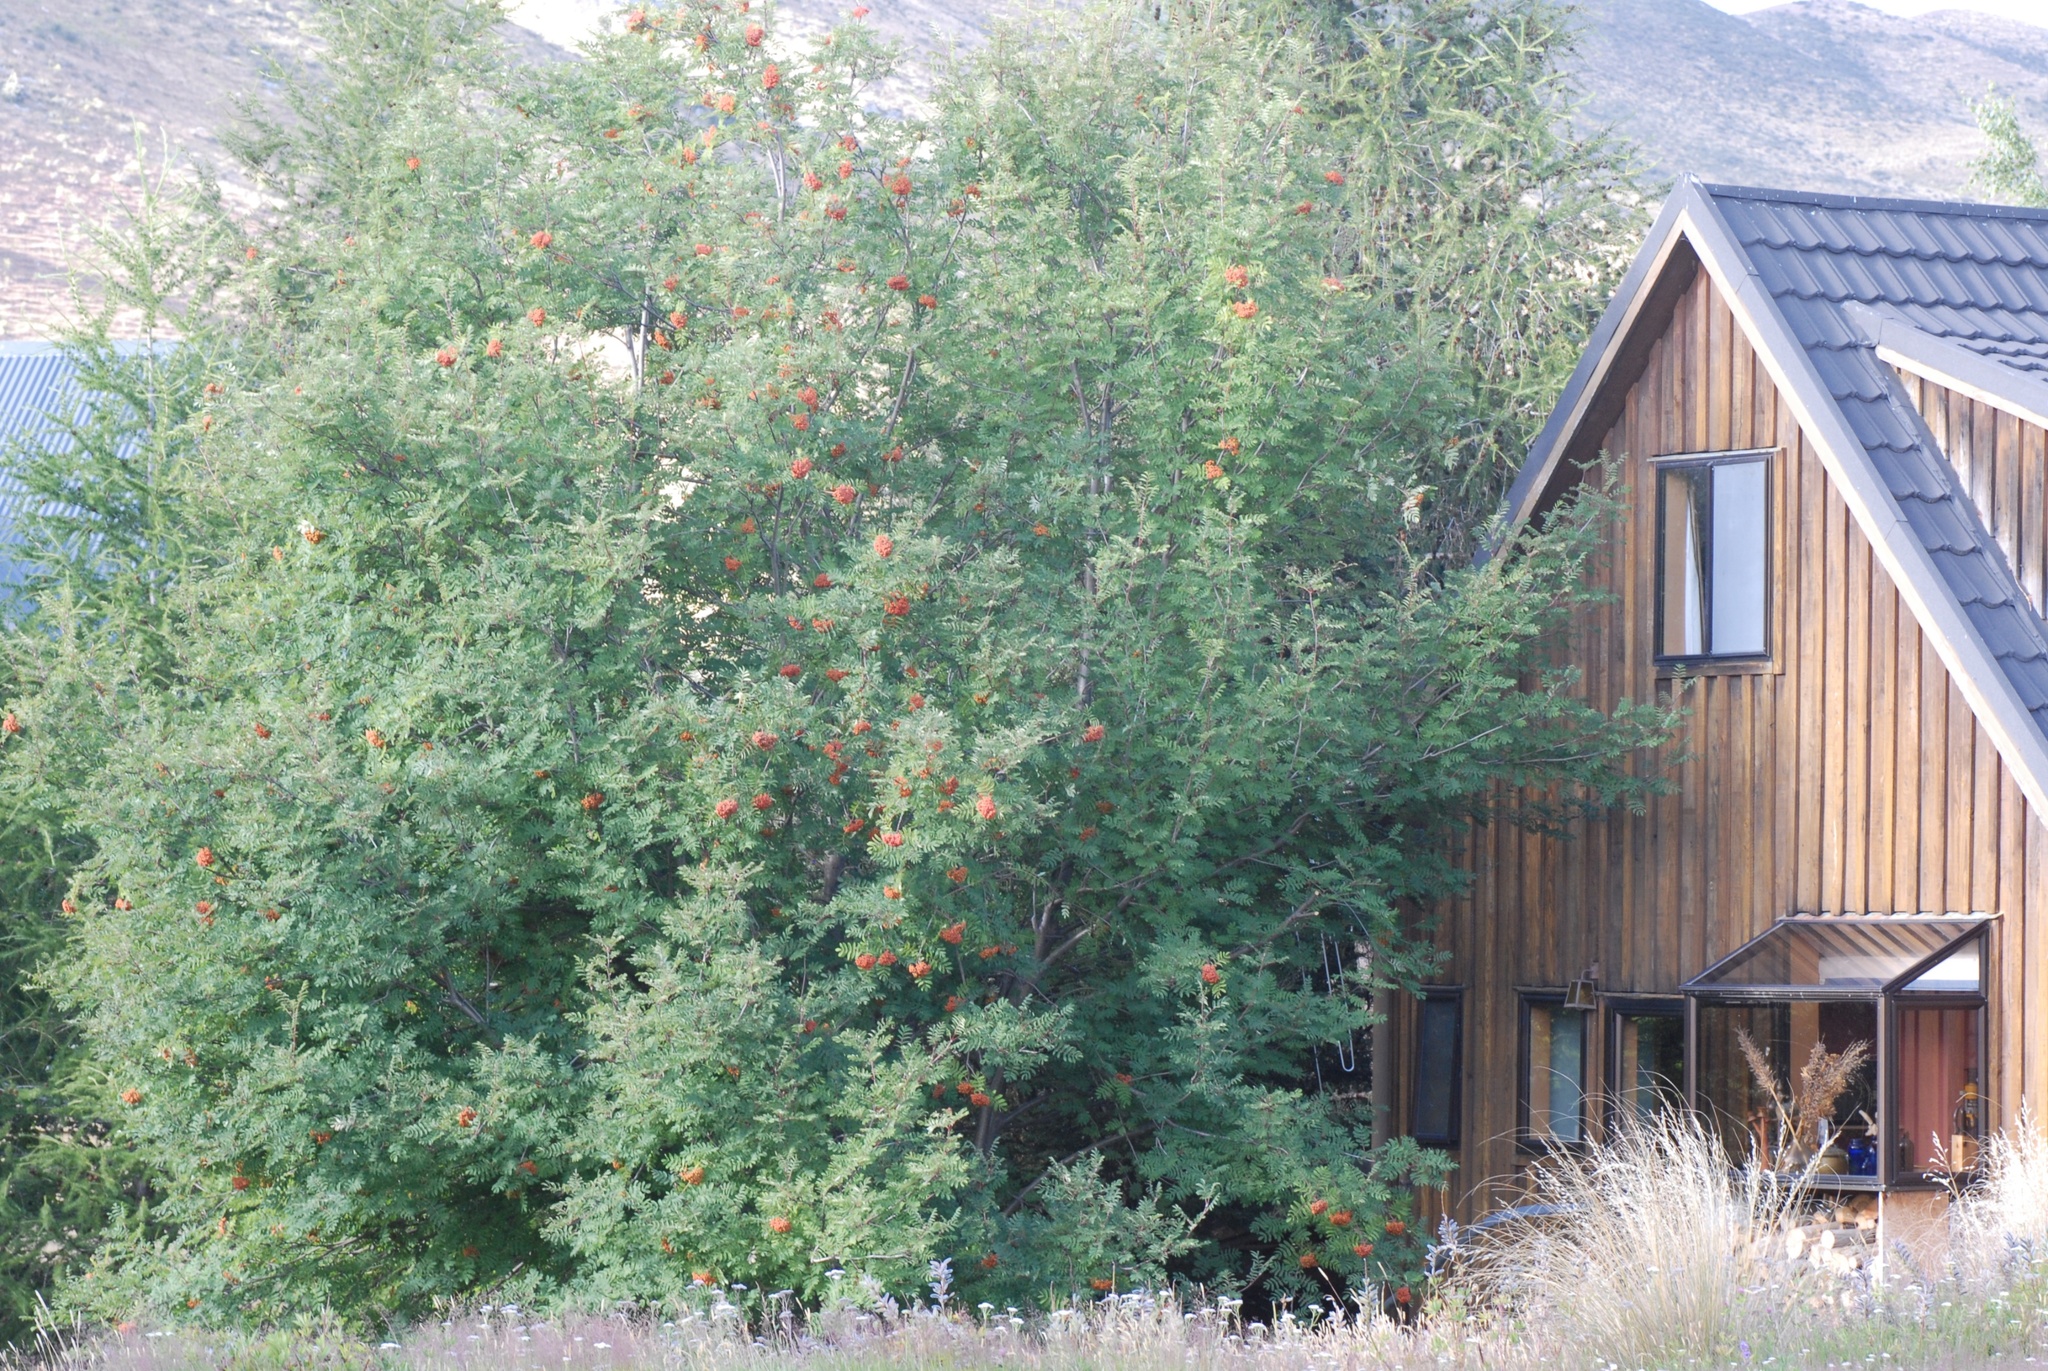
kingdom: Plantae
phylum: Tracheophyta
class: Magnoliopsida
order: Rosales
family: Rosaceae
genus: Sorbus
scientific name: Sorbus aucuparia
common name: Rowan
